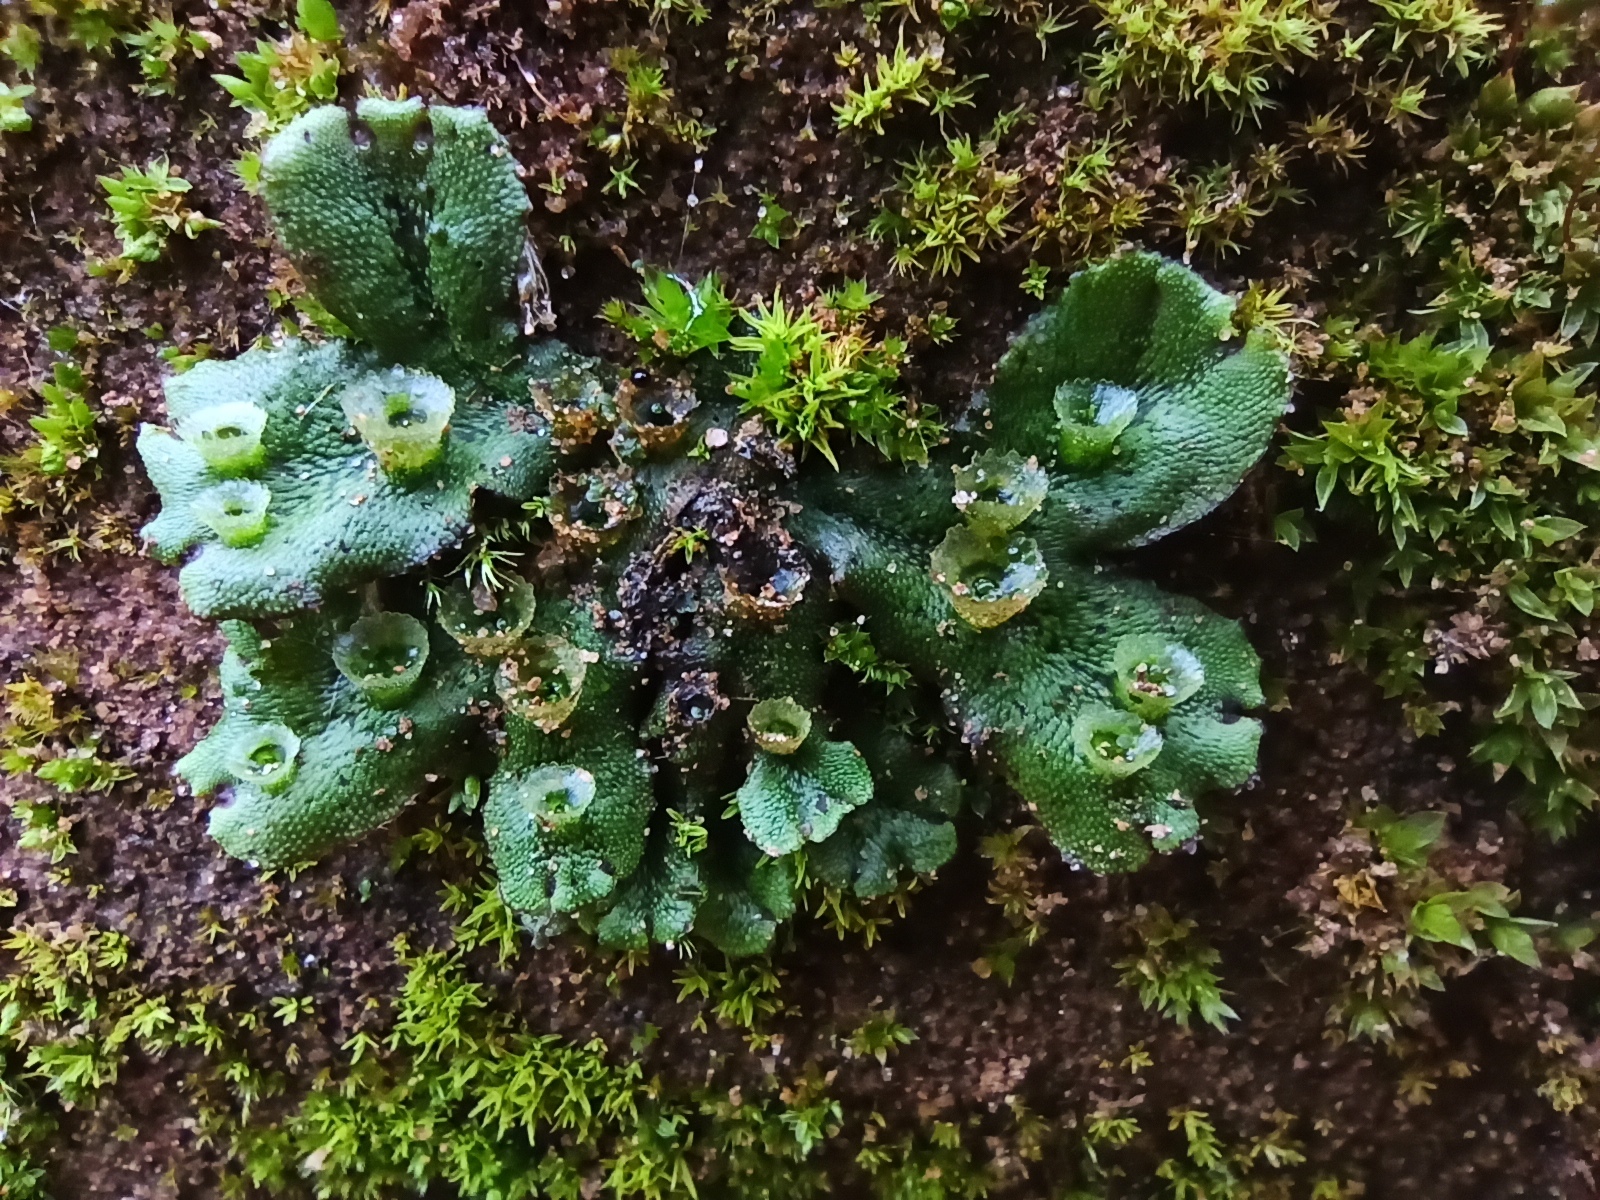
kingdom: Plantae
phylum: Marchantiophyta
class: Marchantiopsida
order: Marchantiales
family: Marchantiaceae
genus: Marchantia
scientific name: Marchantia polymorpha
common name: Common liverwort
